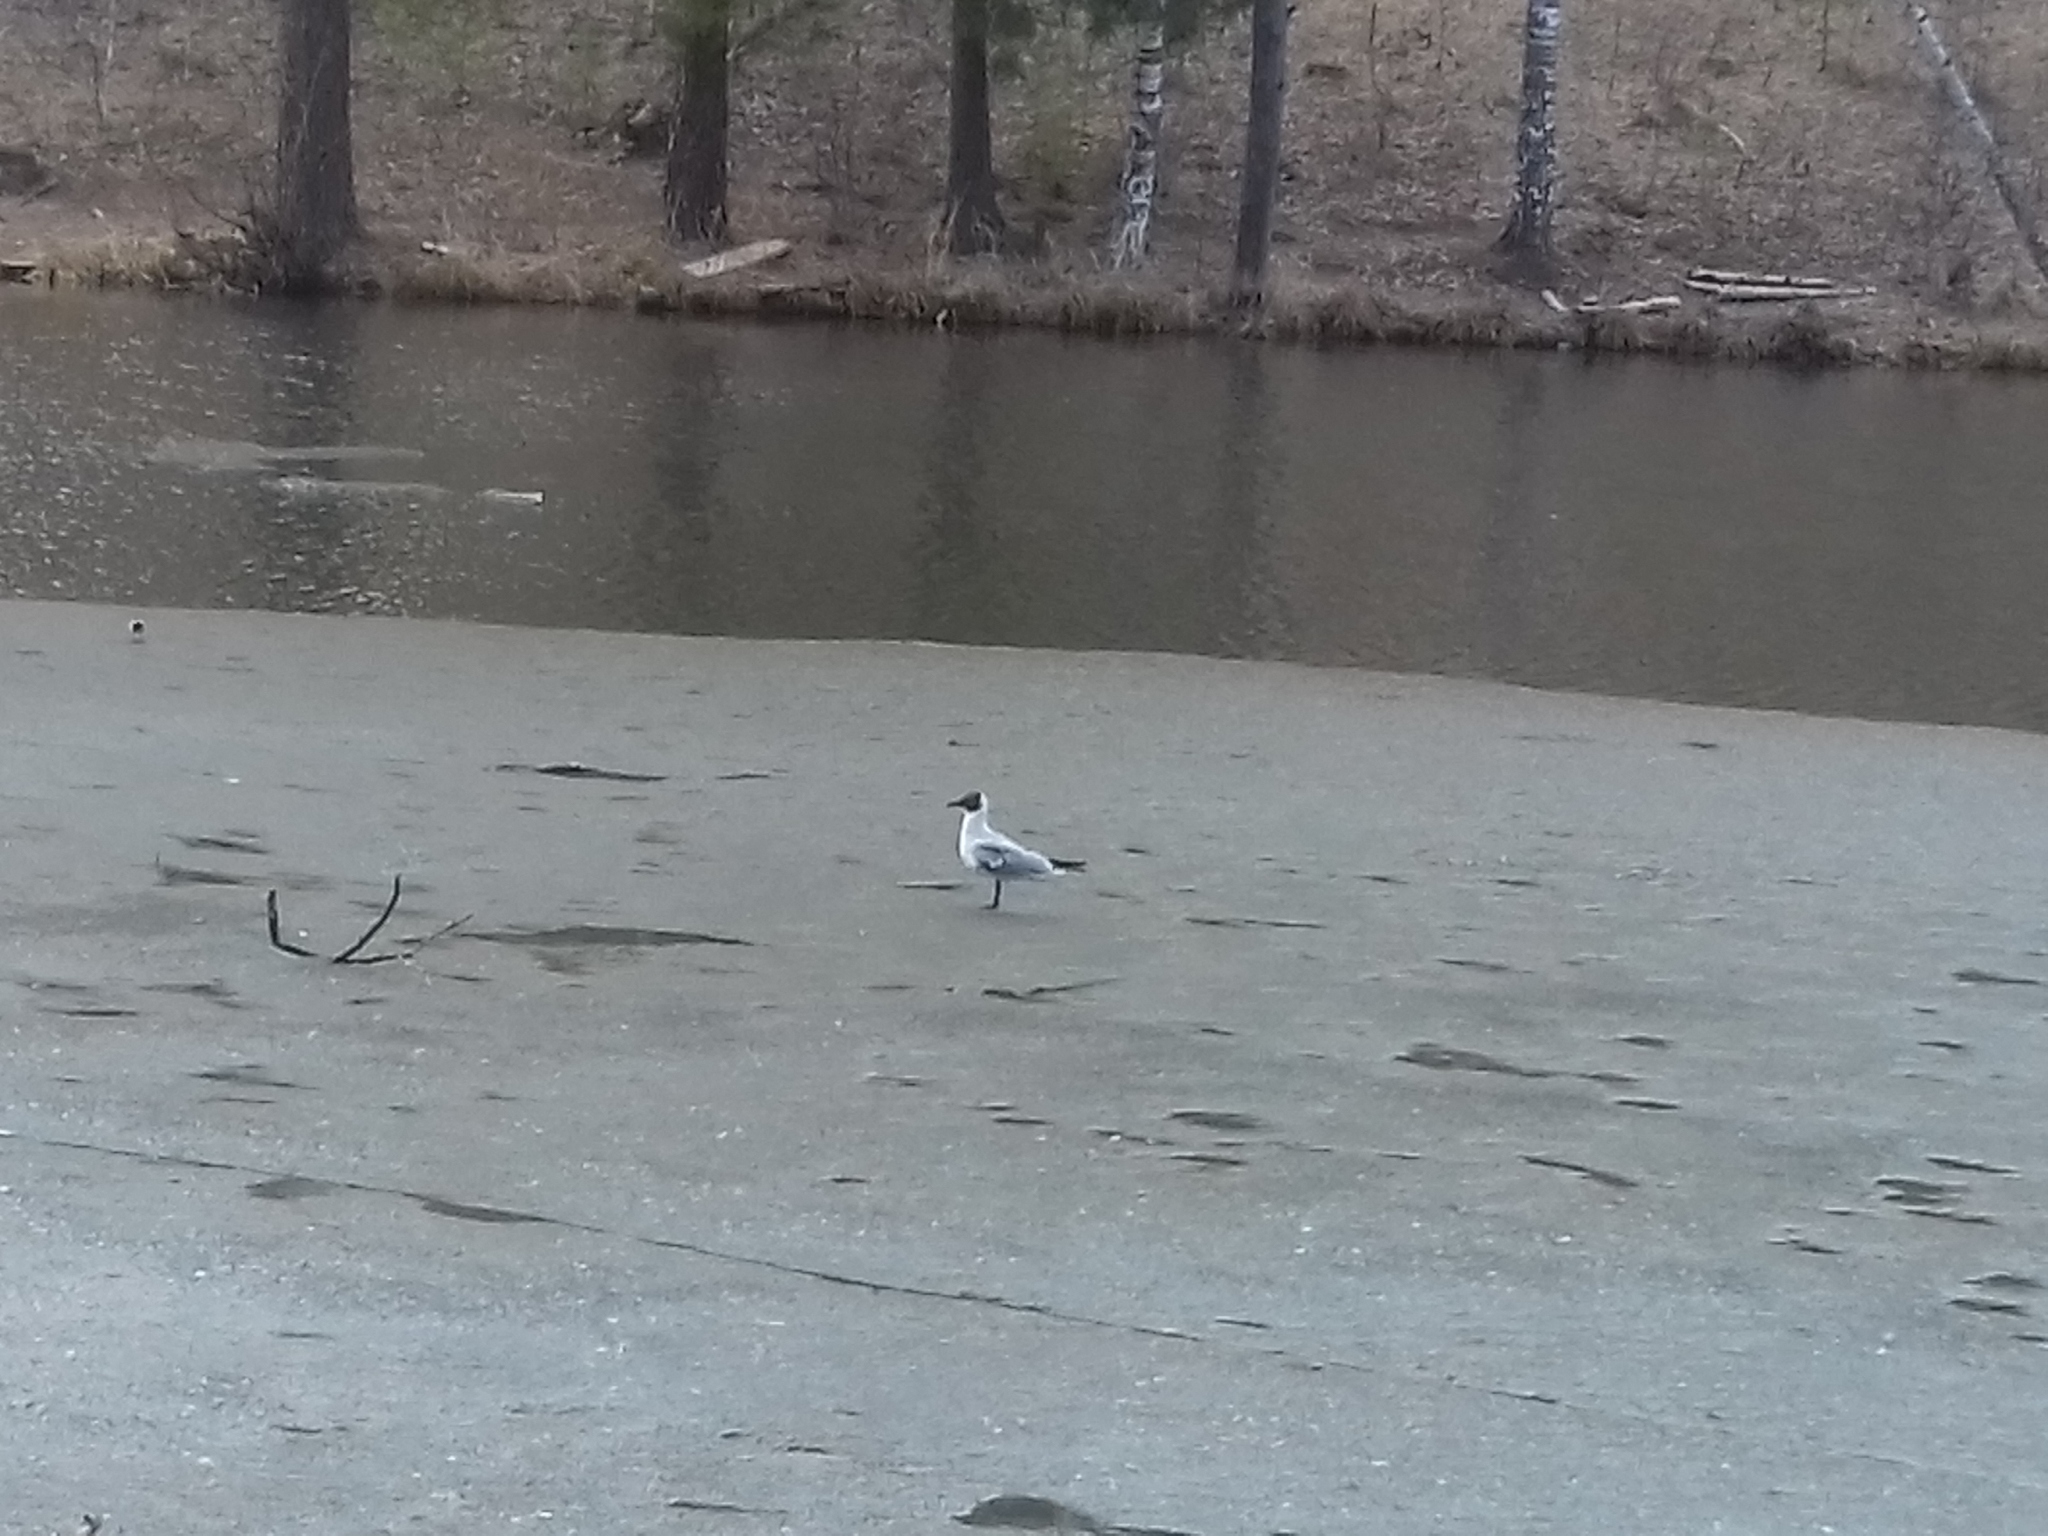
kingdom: Animalia
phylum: Chordata
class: Aves
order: Charadriiformes
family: Laridae
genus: Chroicocephalus
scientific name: Chroicocephalus ridibundus
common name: Black-headed gull
